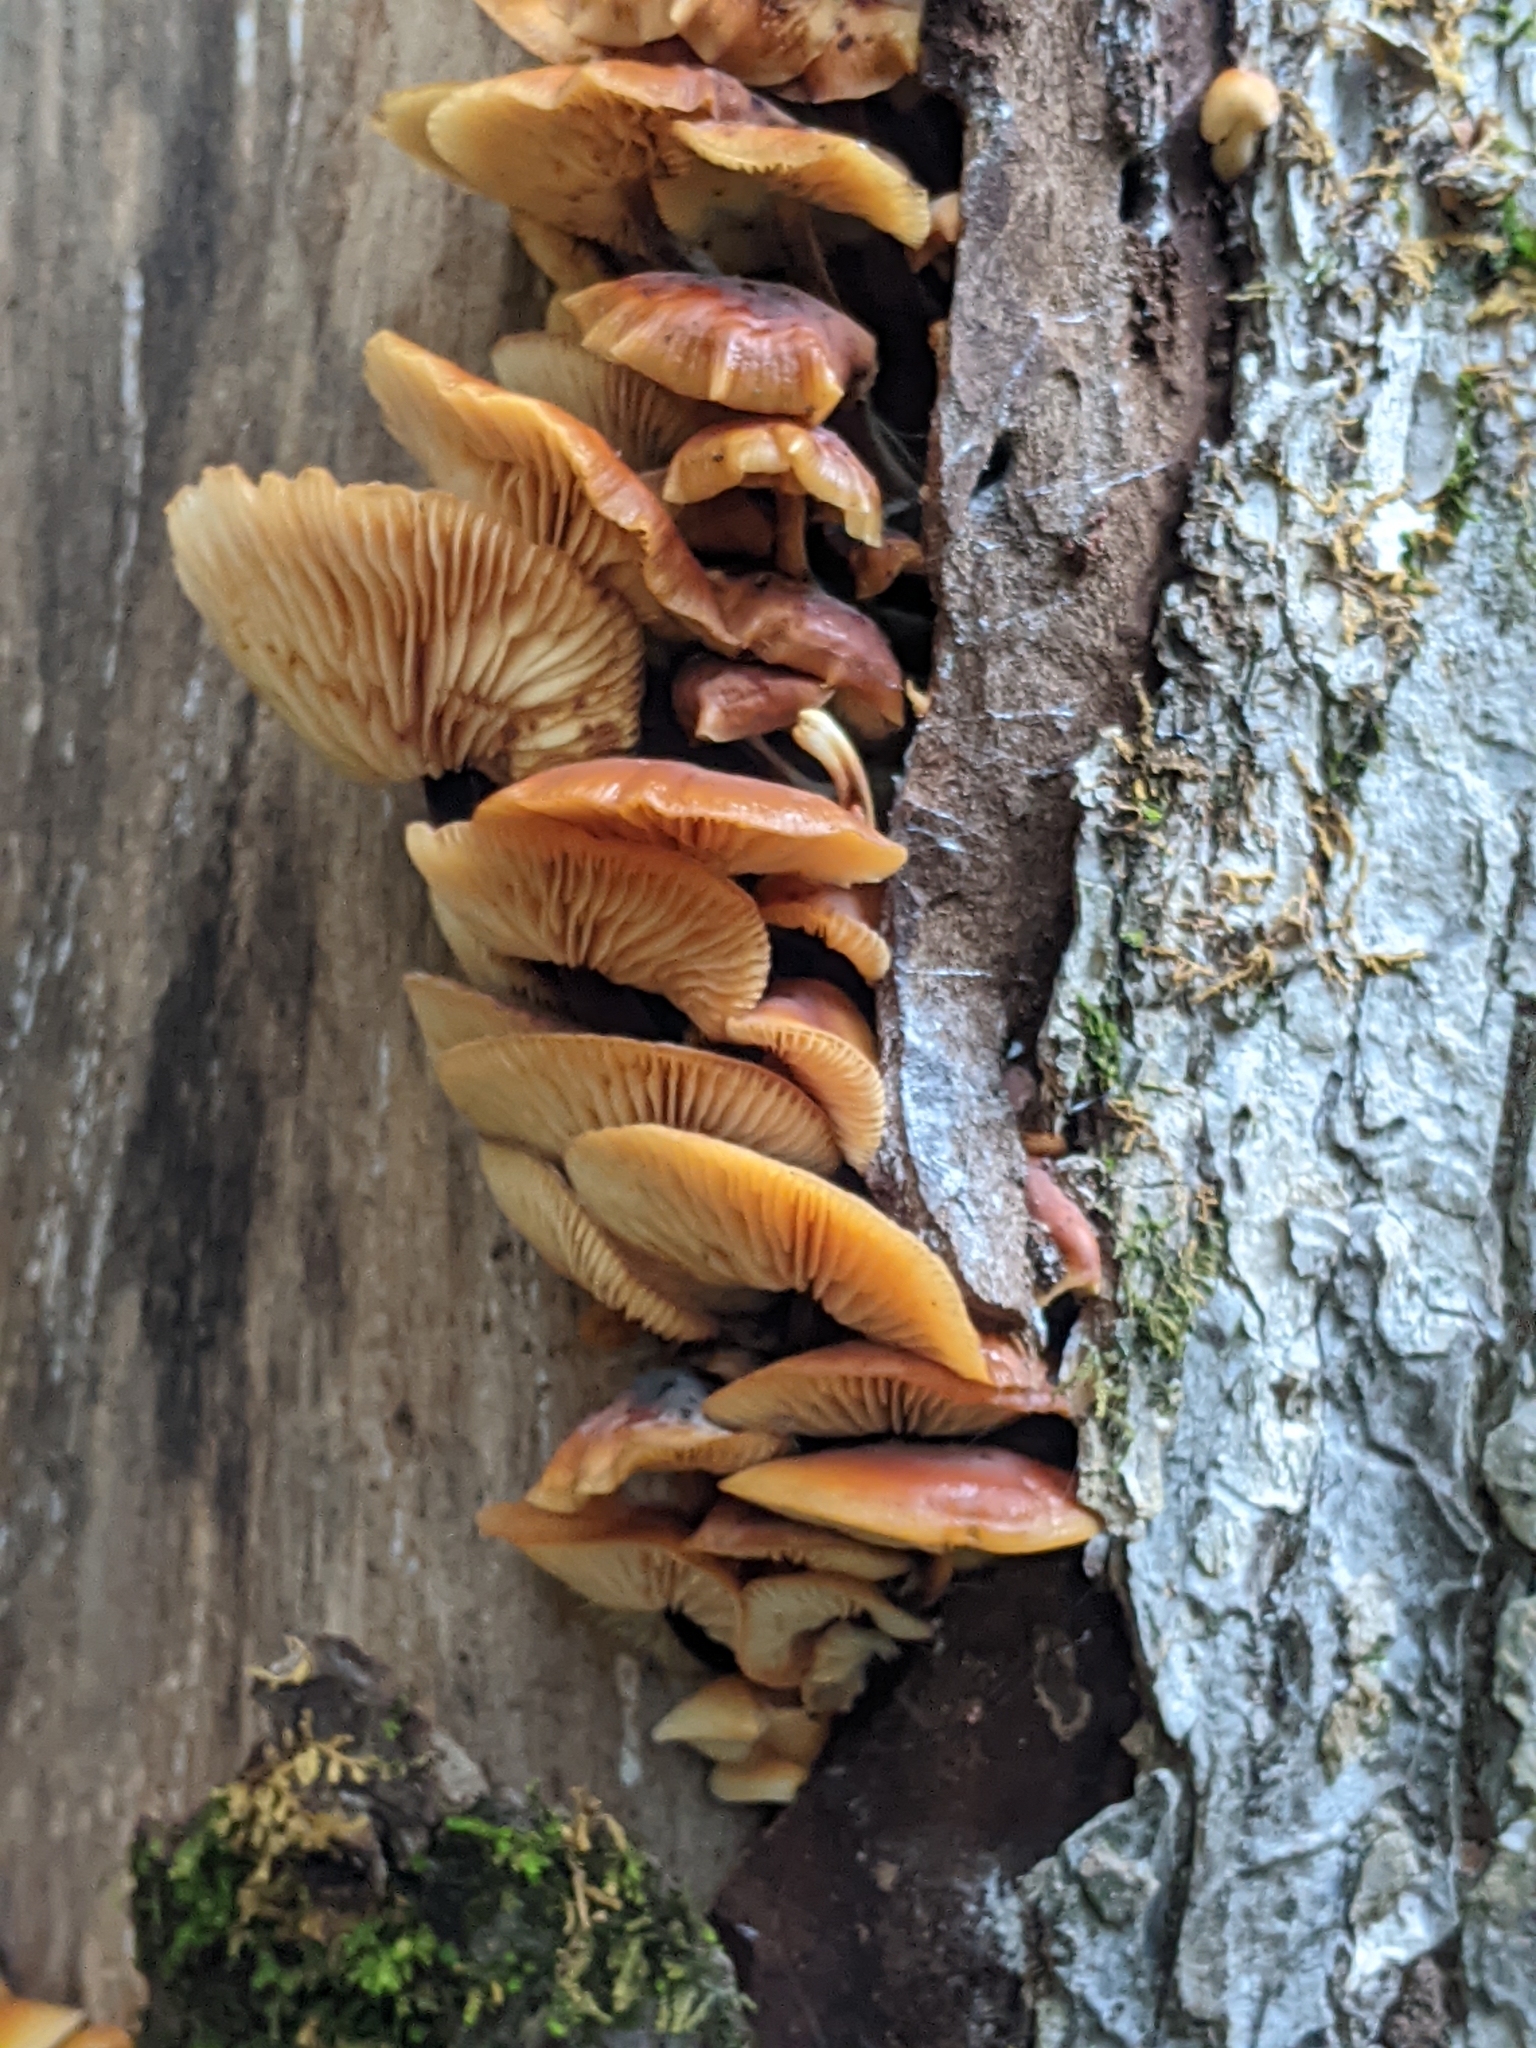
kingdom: Fungi
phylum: Basidiomycota
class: Agaricomycetes
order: Agaricales
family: Physalacriaceae
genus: Flammulina
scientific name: Flammulina velutipes
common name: Velvet shank
